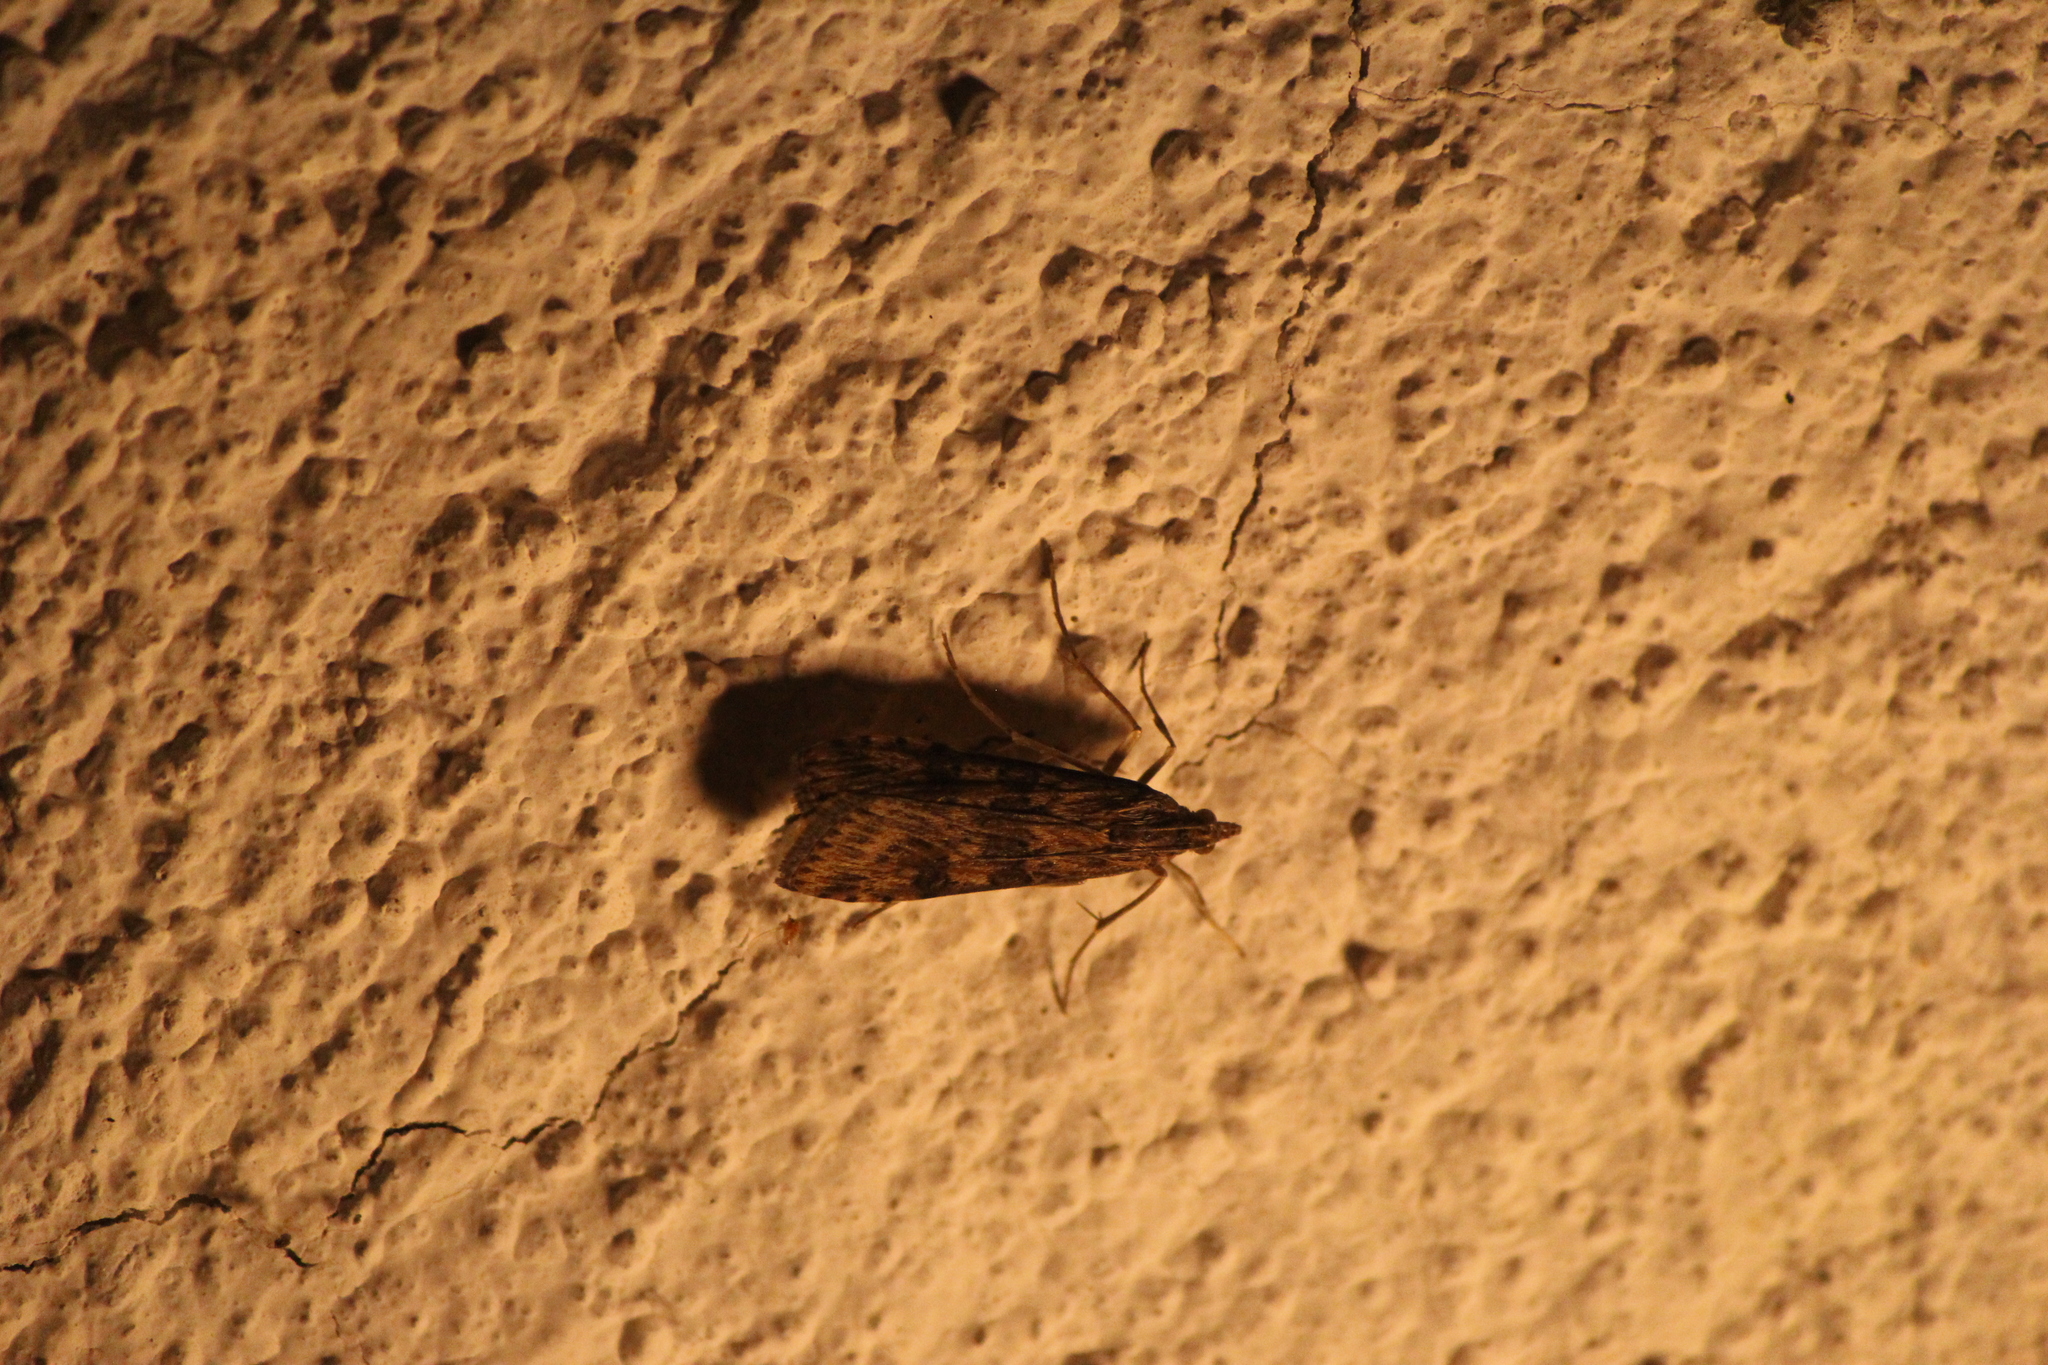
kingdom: Animalia
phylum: Arthropoda
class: Insecta
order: Lepidoptera
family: Crambidae
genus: Nomophila
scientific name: Nomophila nearctica
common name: American rush veneer
